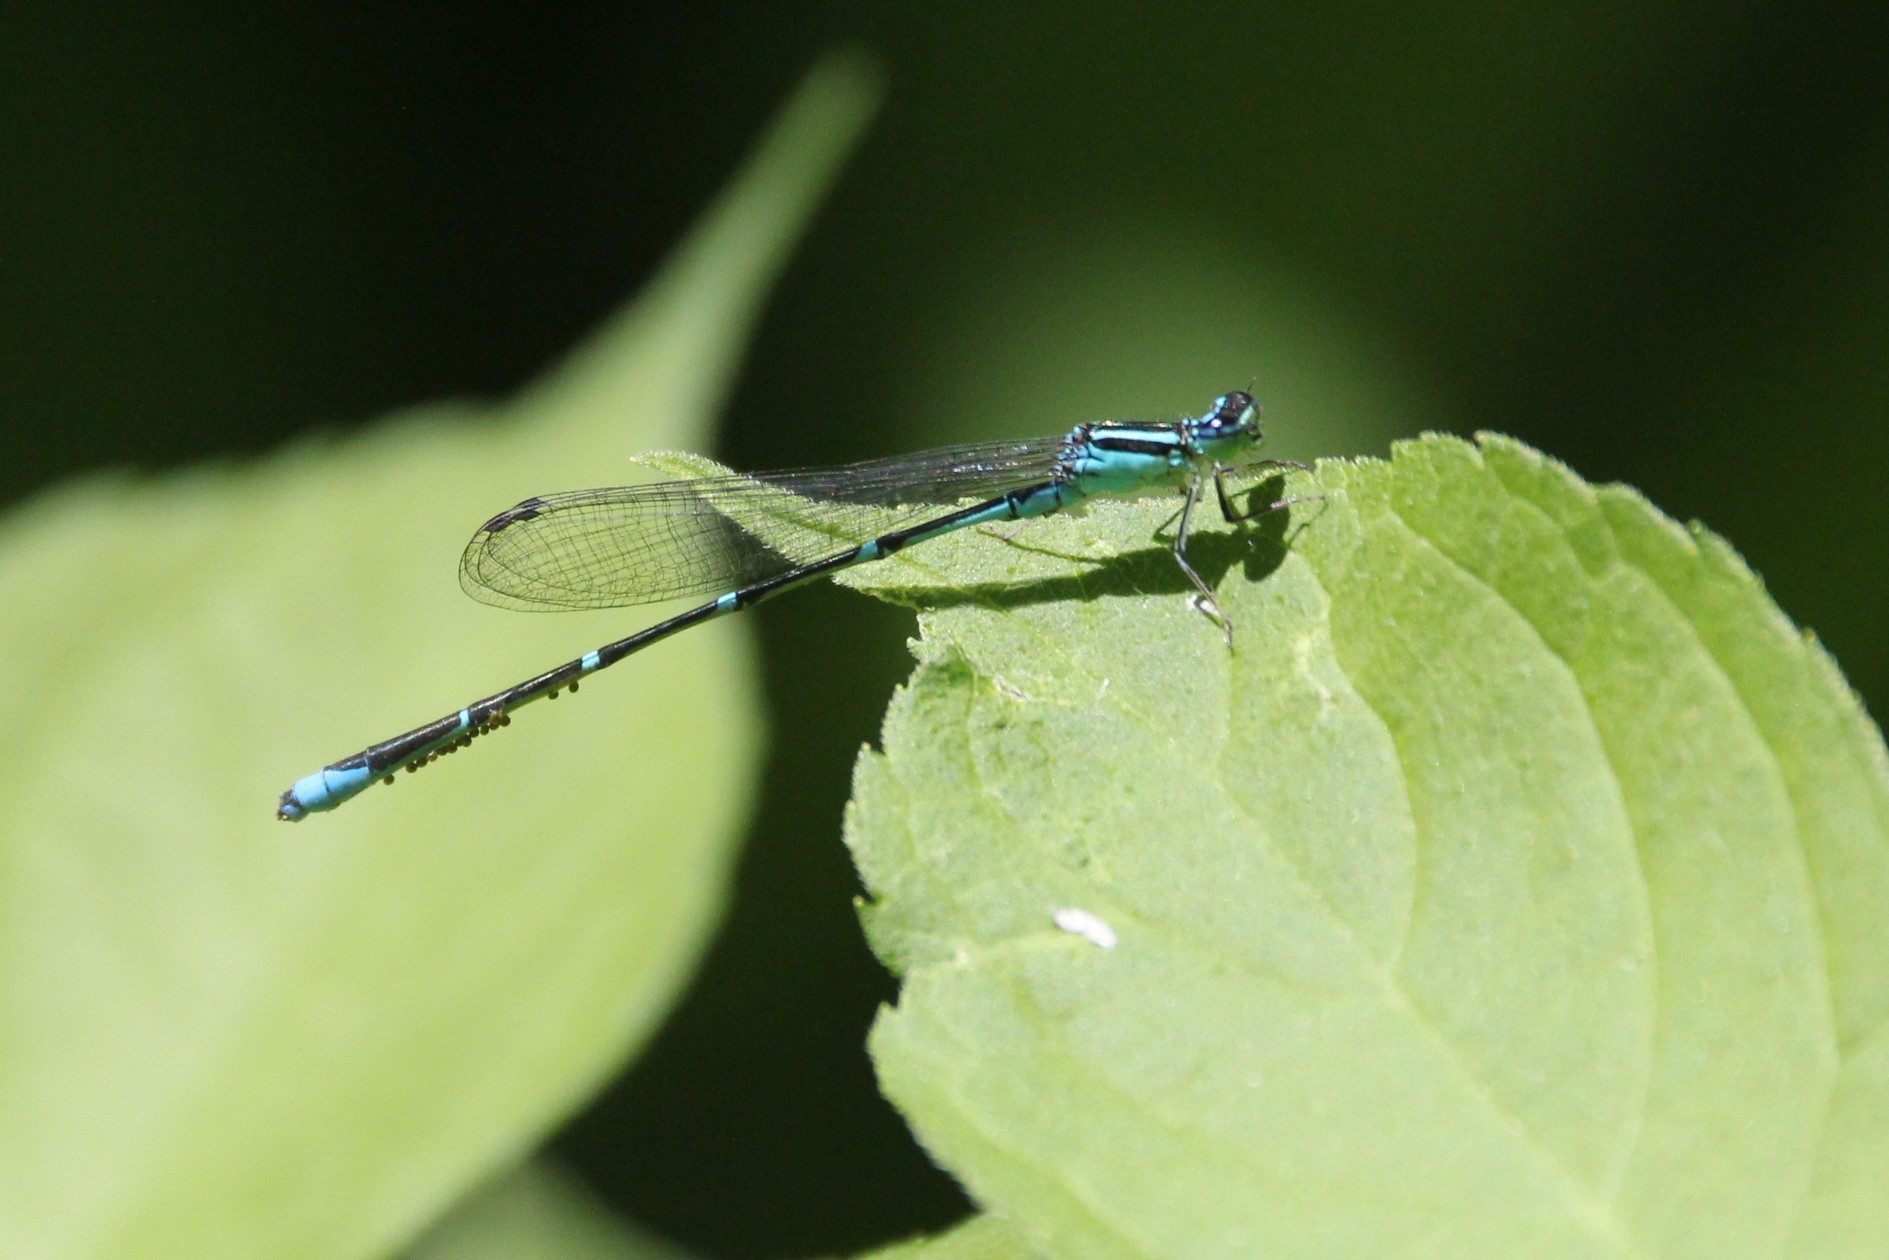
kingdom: Animalia
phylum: Arthropoda
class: Insecta
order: Odonata
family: Coenagrionidae
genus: Enallagma
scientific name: Enallagma exsulans
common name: Stream bluet
